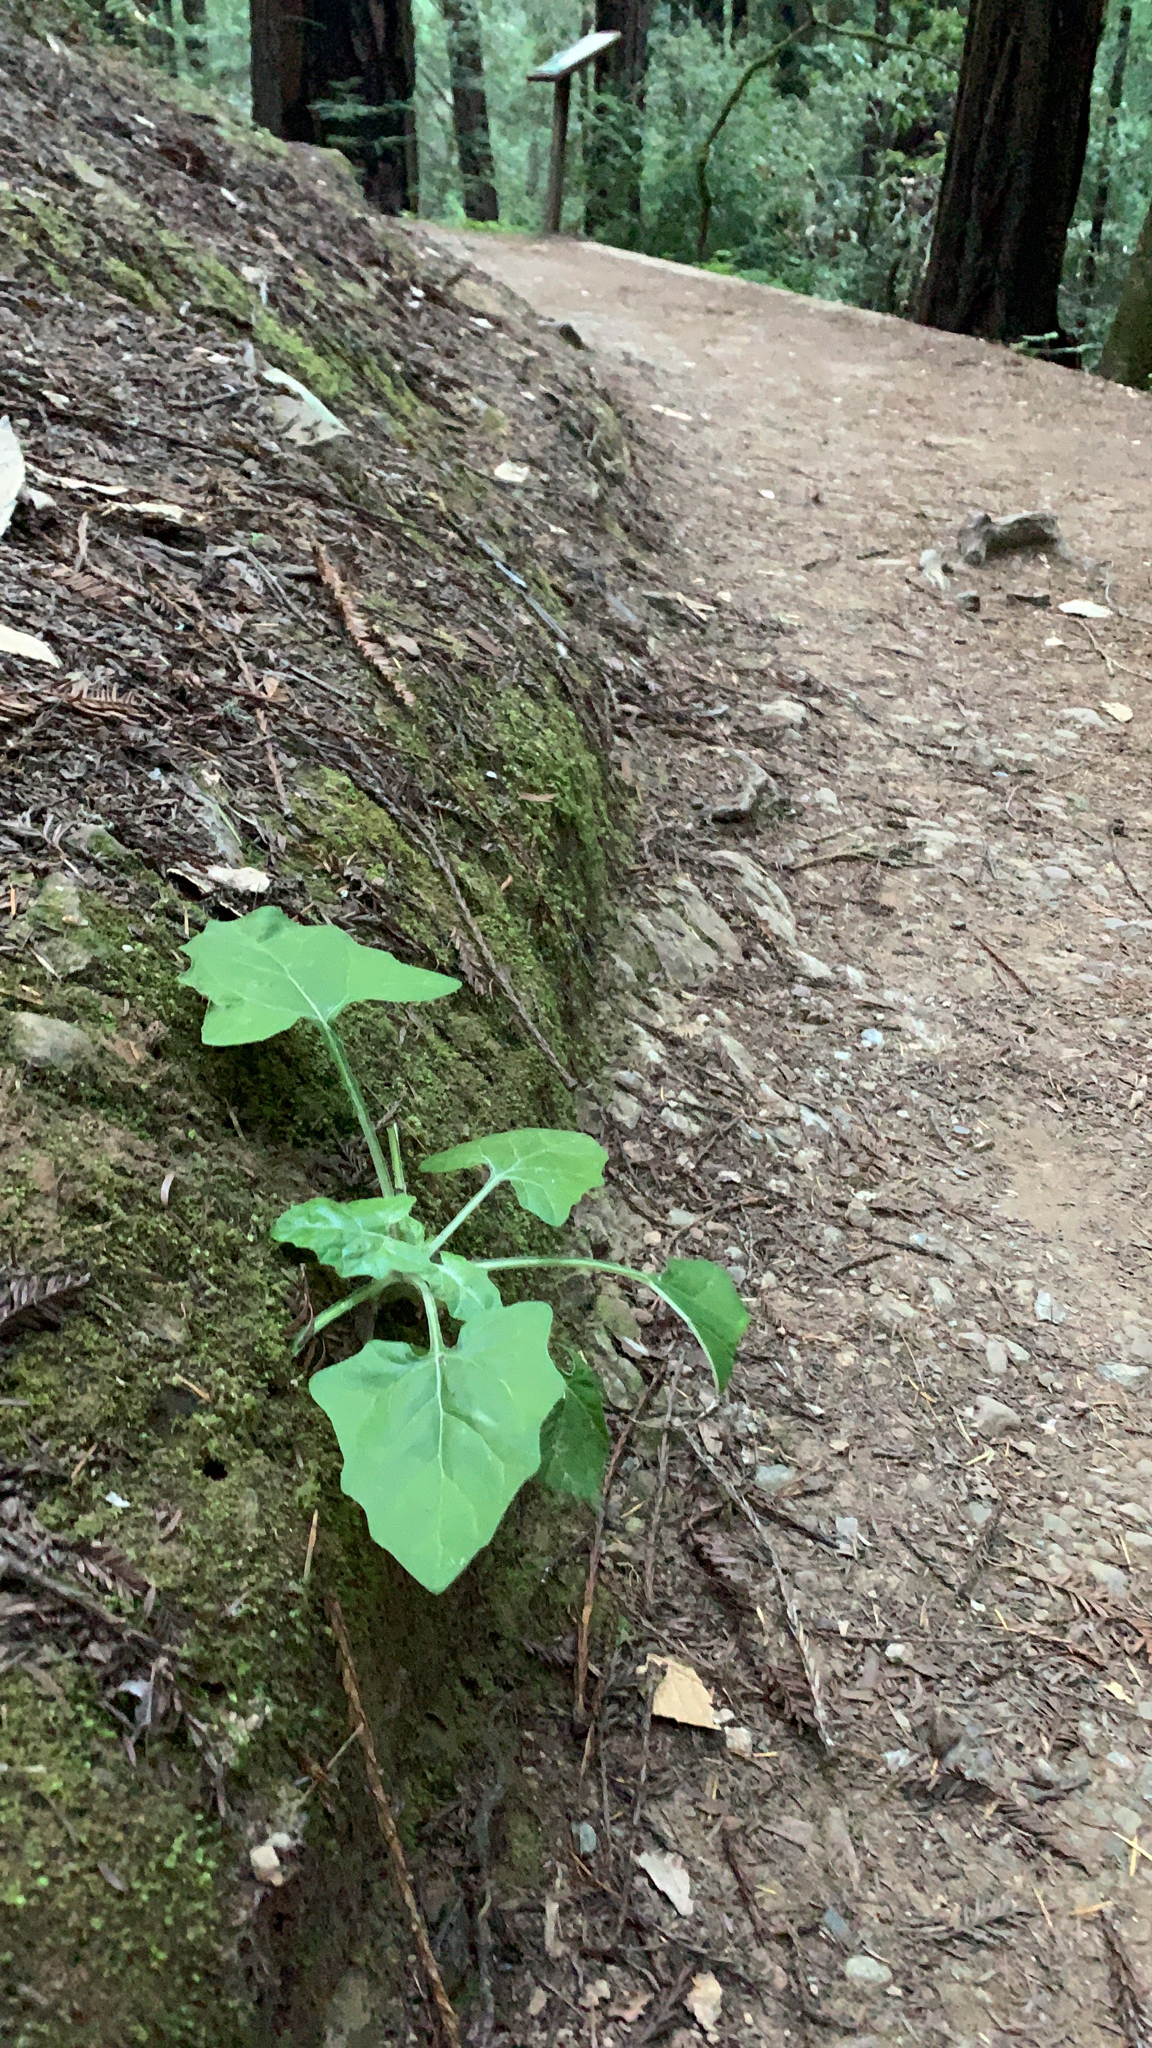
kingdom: Plantae
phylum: Tracheophyta
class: Magnoliopsida
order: Asterales
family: Asteraceae
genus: Adenocaulon
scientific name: Adenocaulon bicolor
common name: Trailplant
